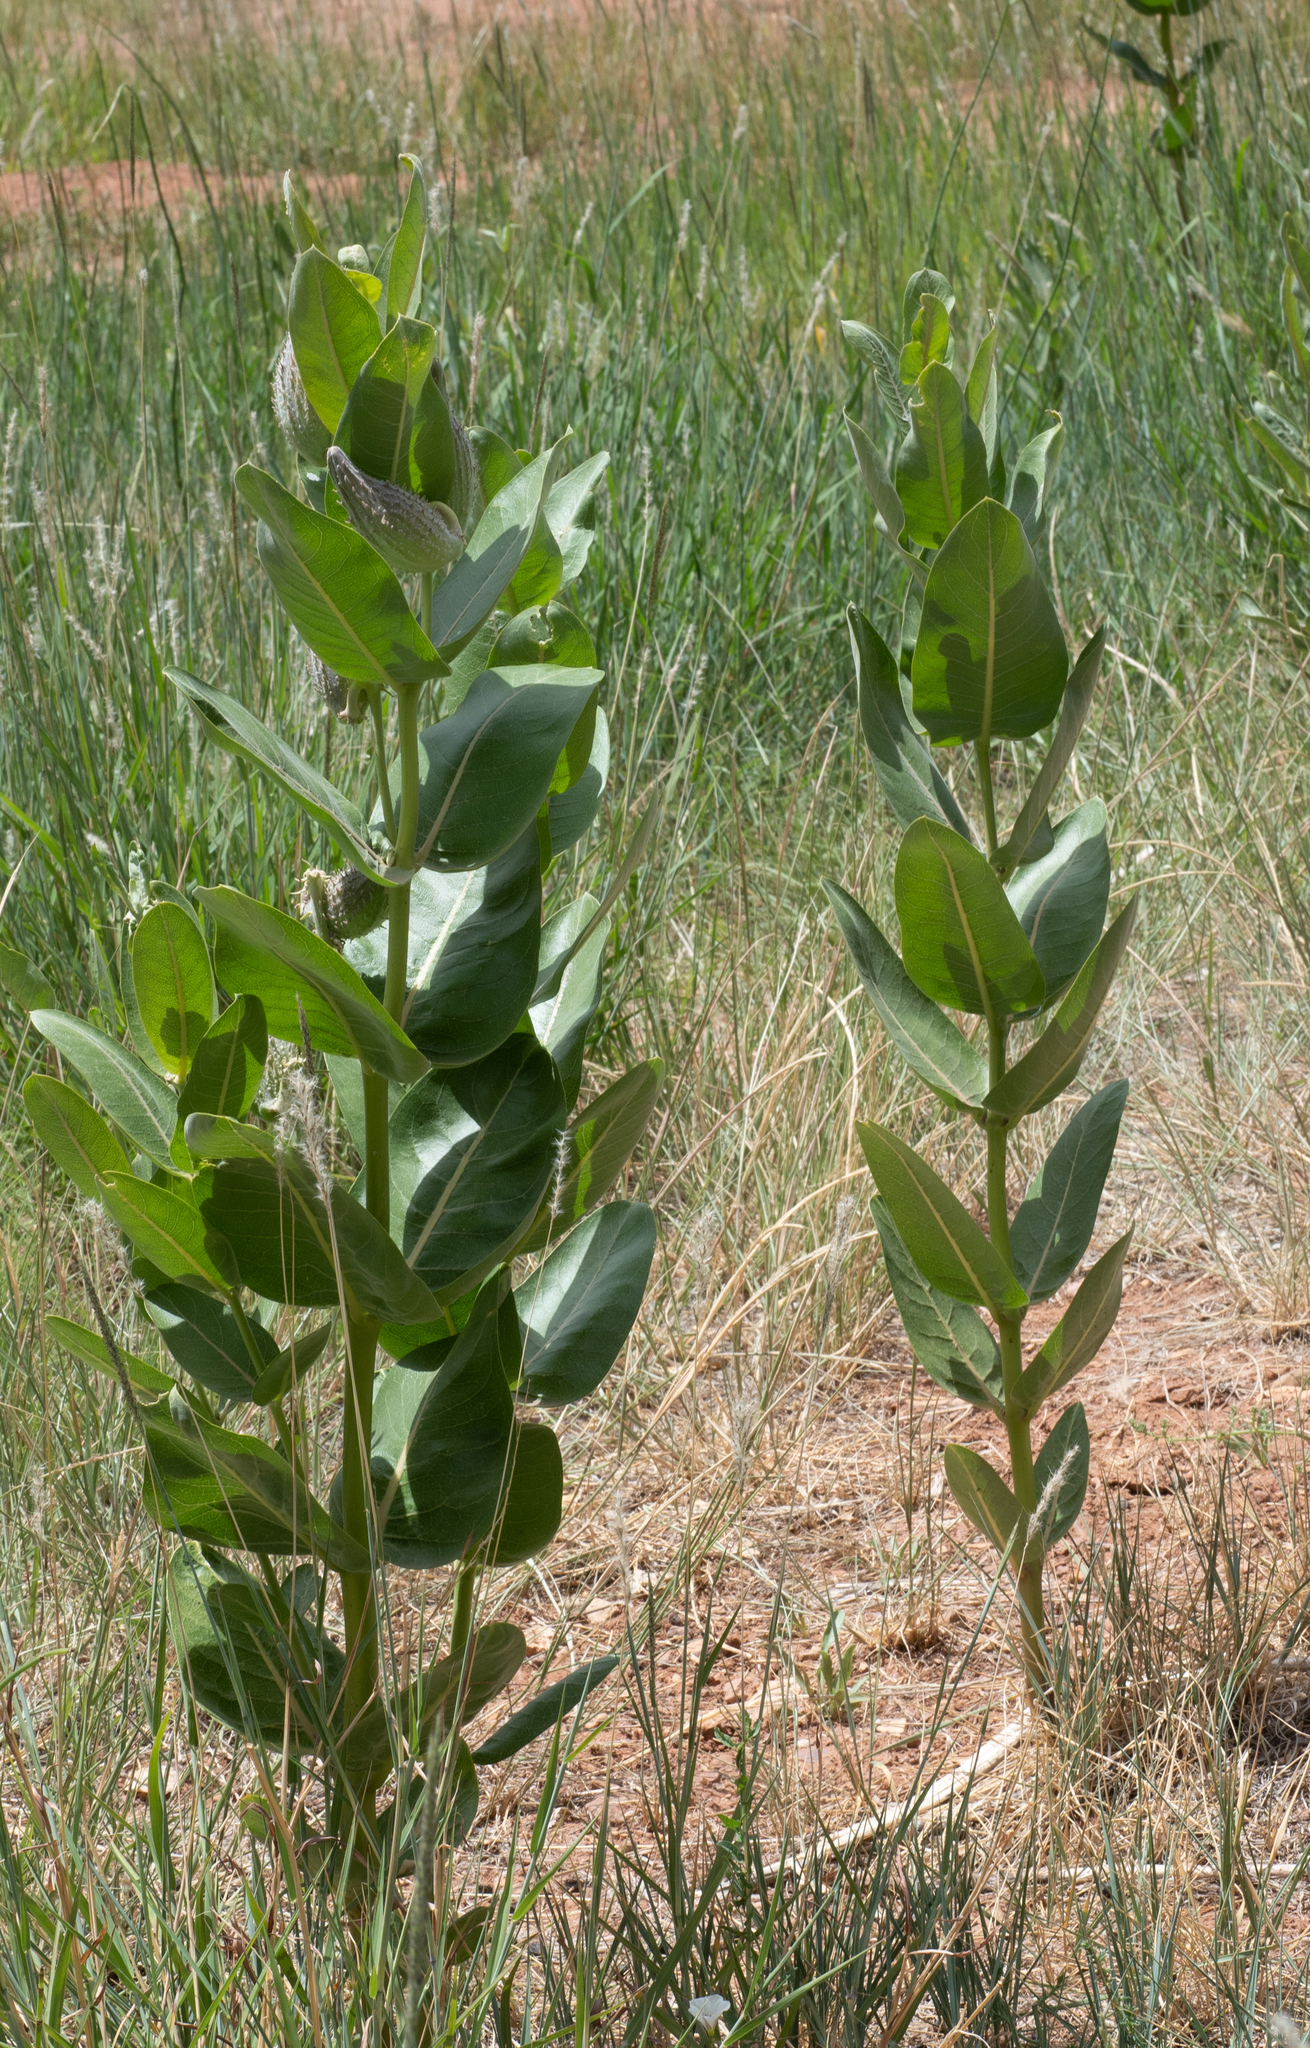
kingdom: Plantae
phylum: Tracheophyta
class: Magnoliopsida
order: Gentianales
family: Apocynaceae
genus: Asclepias
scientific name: Asclepias speciosa
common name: Showy milkweed
